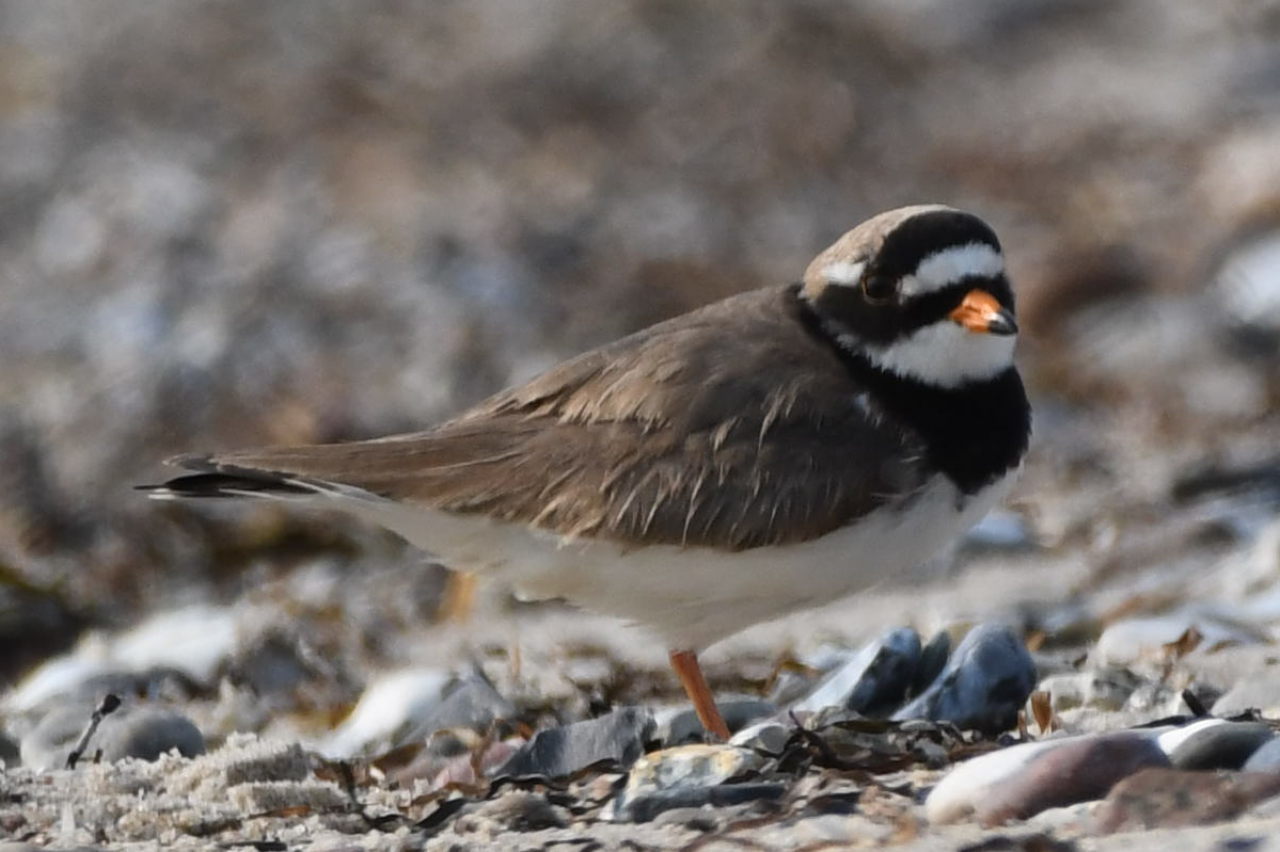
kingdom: Animalia
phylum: Chordata
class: Aves
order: Charadriiformes
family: Charadriidae
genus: Charadrius
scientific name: Charadrius hiaticula
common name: Common ringed plover
